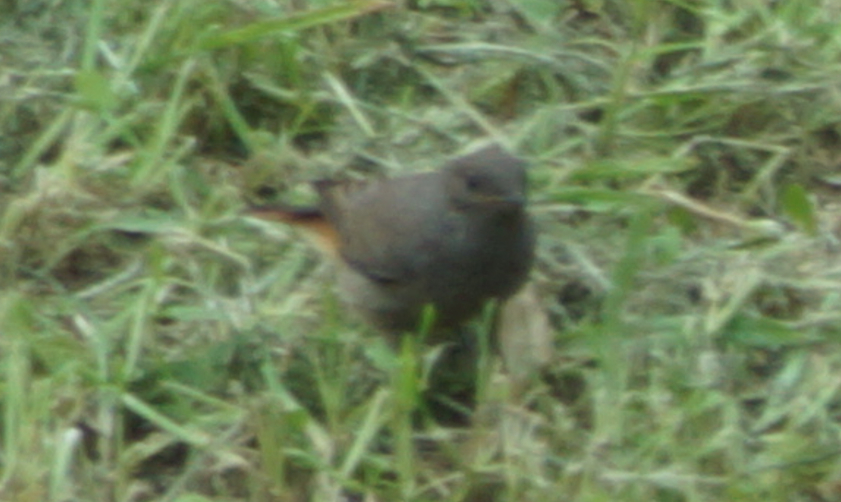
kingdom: Animalia
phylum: Chordata
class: Aves
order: Passeriformes
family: Muscicapidae
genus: Phoenicurus
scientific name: Phoenicurus ochruros
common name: Black redstart
